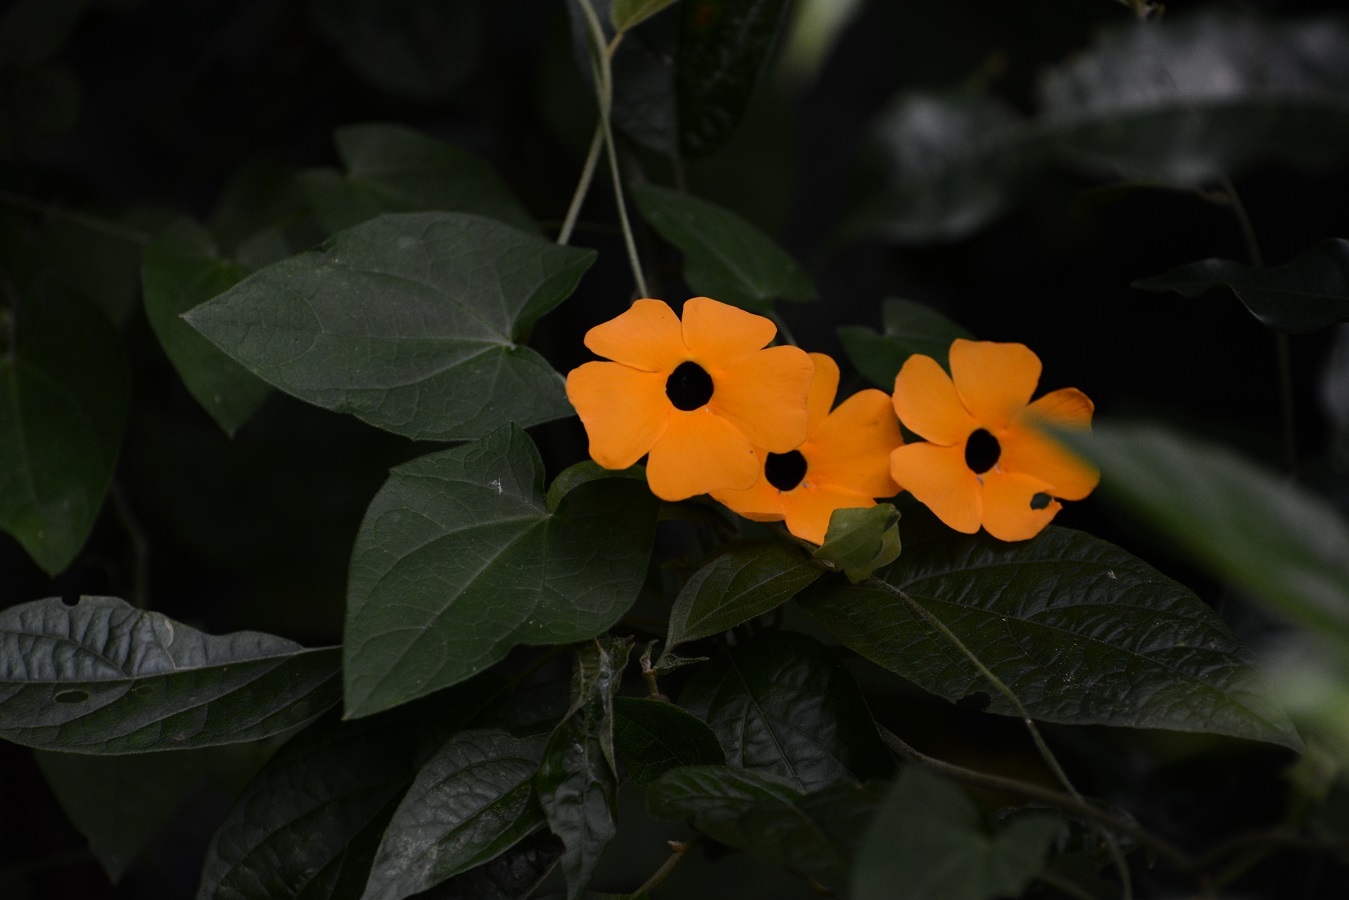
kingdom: Plantae
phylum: Tracheophyta
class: Magnoliopsida
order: Lamiales
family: Acanthaceae
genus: Thunbergia
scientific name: Thunbergia alata
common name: Blackeyed susan vine
